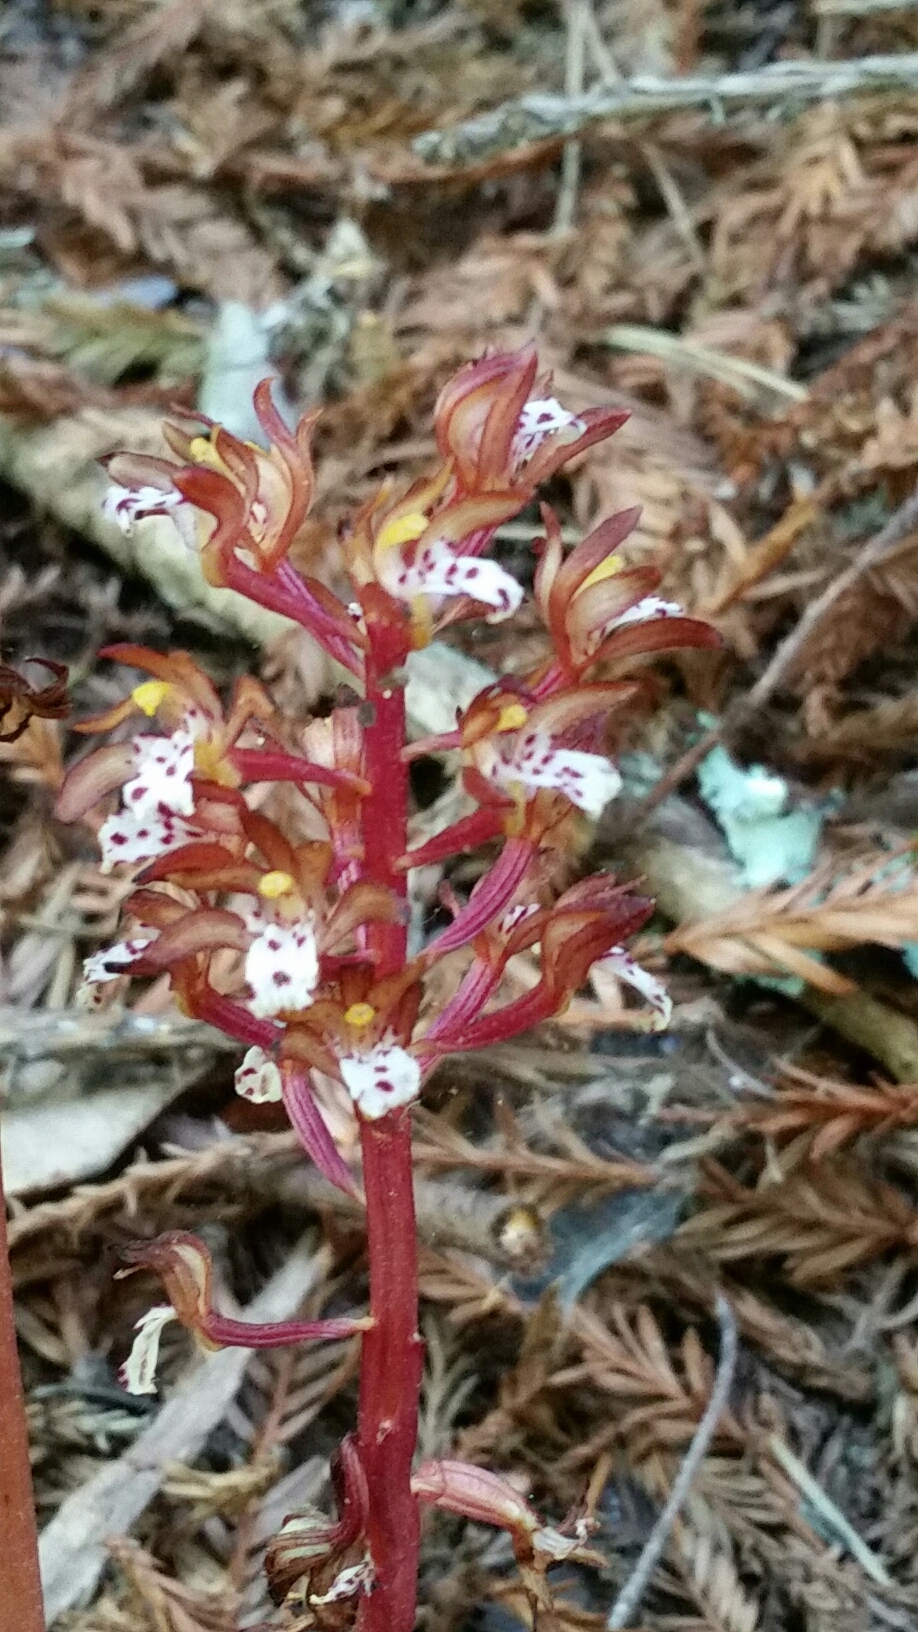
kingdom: Plantae
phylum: Tracheophyta
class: Liliopsida
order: Asparagales
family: Orchidaceae
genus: Corallorhiza
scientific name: Corallorhiza maculata
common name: Spotted coralroot
